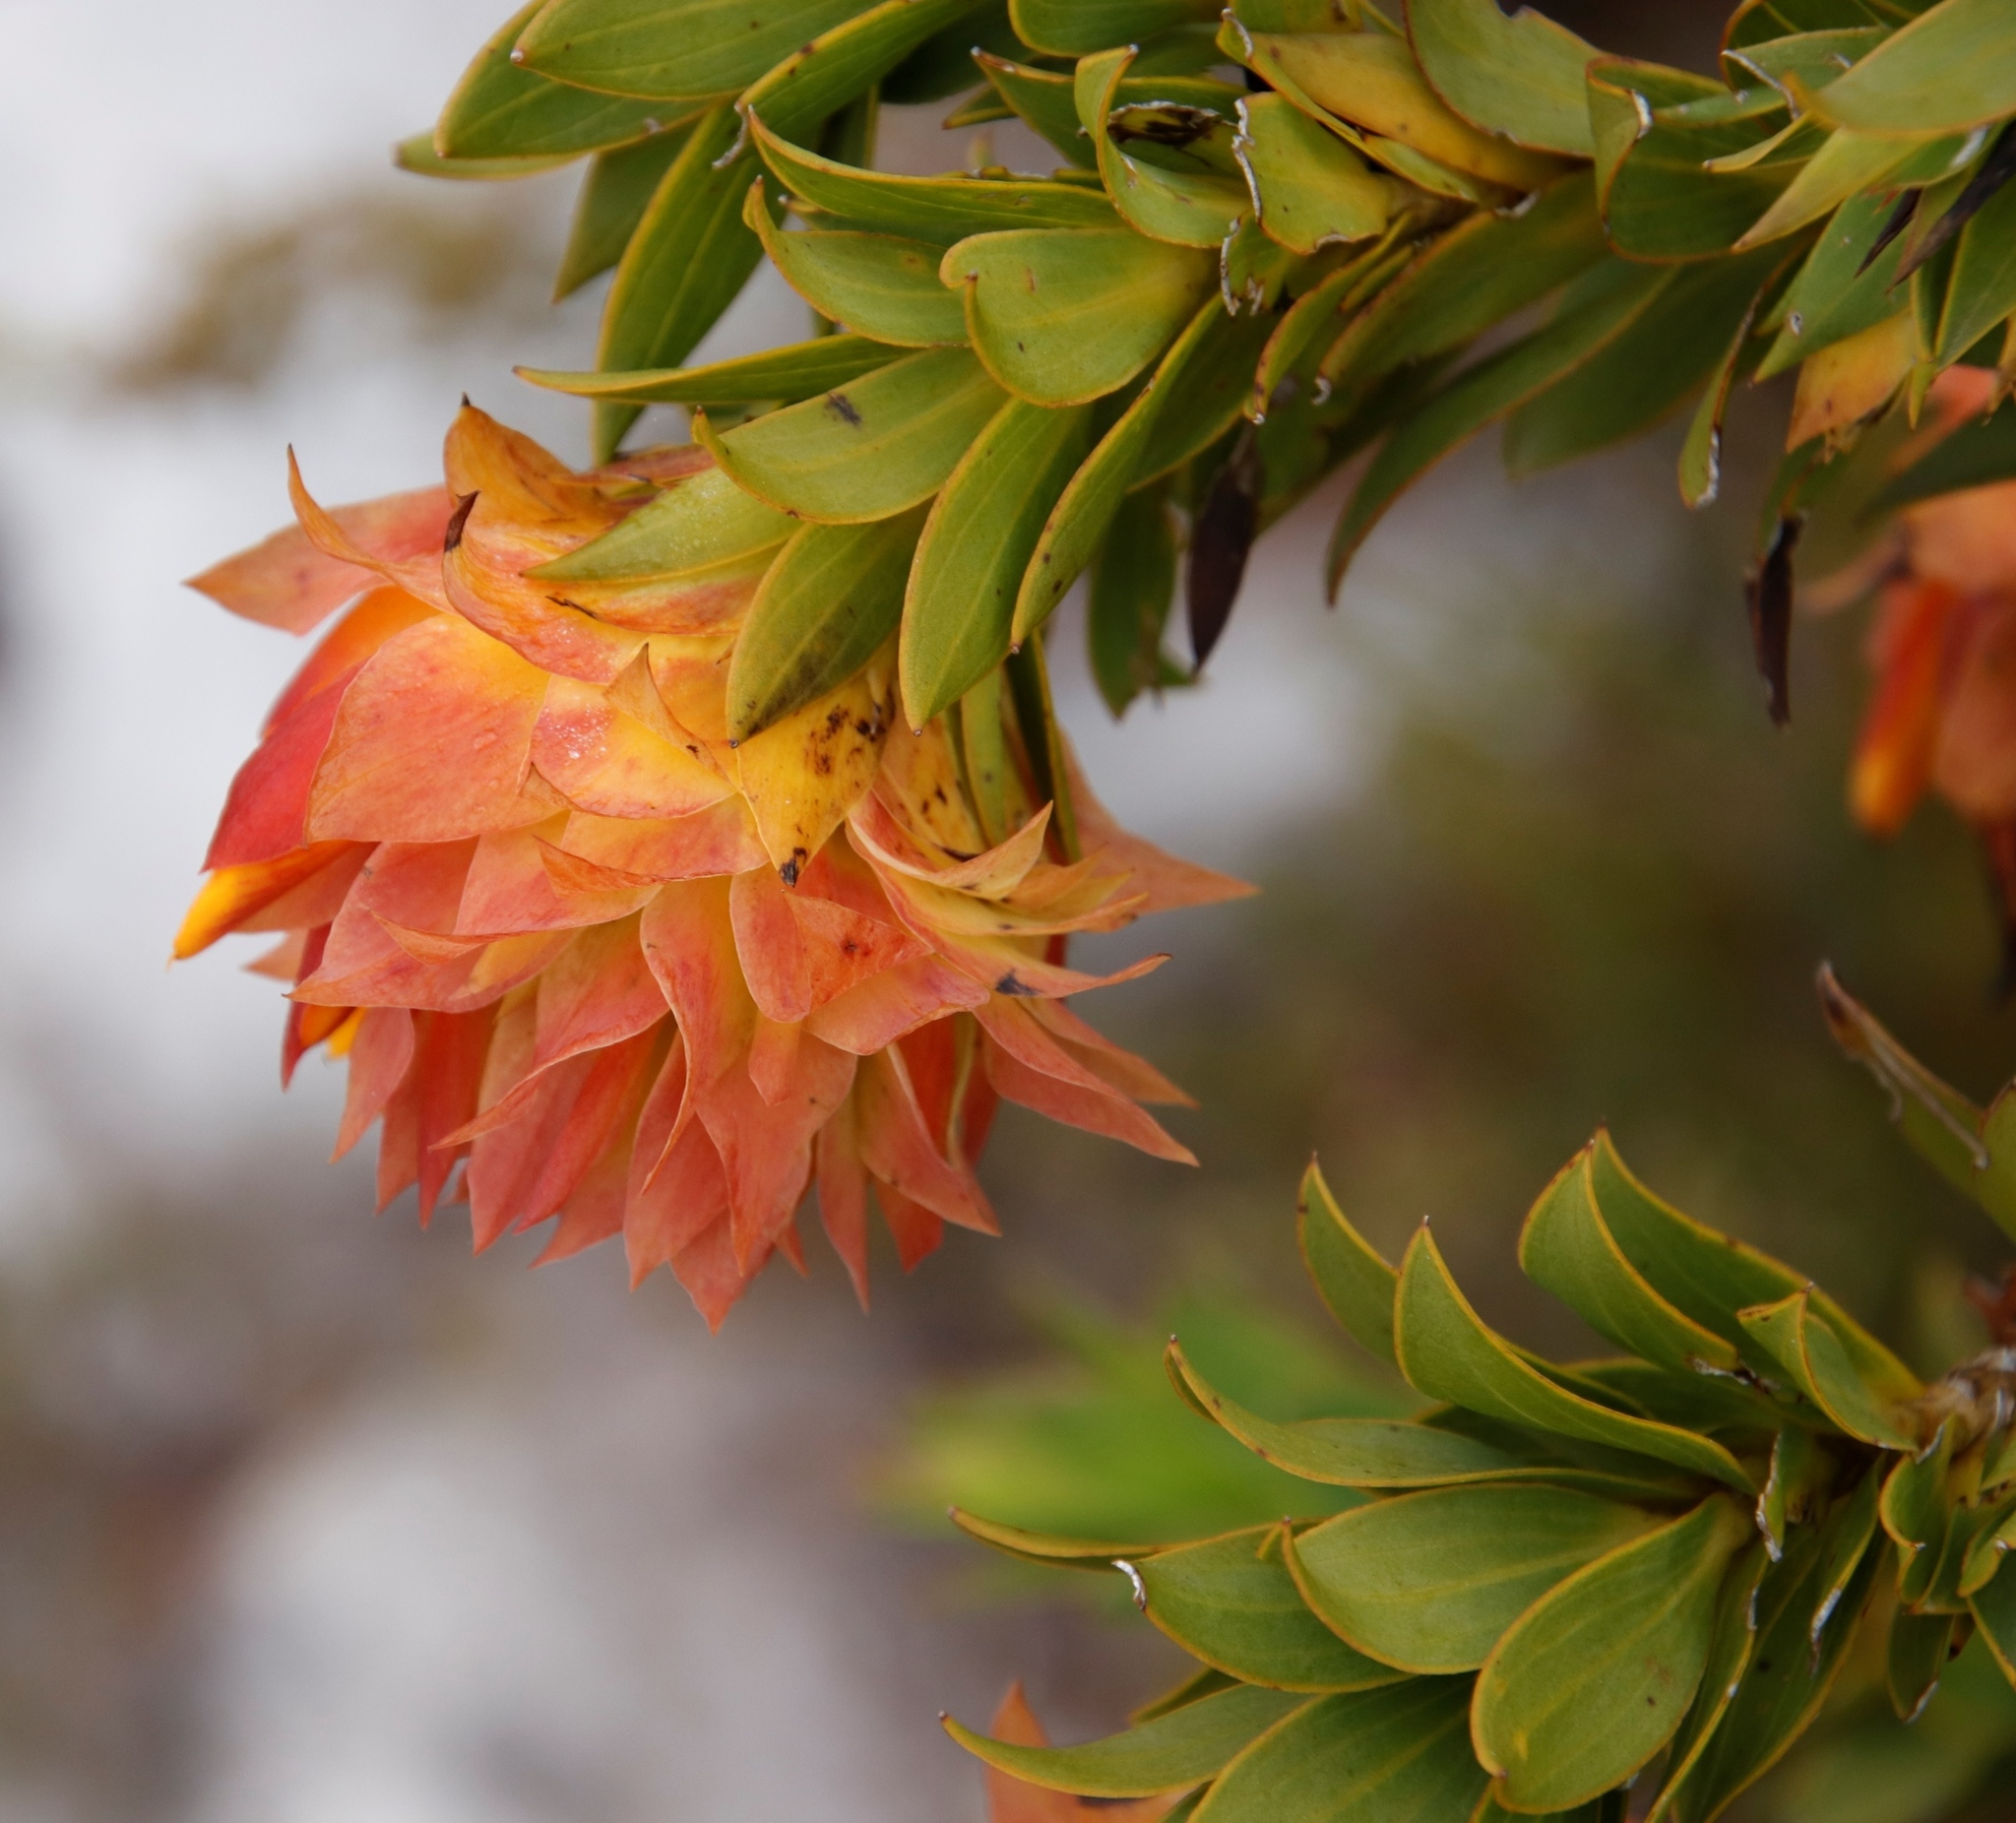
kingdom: Plantae
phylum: Tracheophyta
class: Magnoliopsida
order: Fabales
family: Fabaceae
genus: Liparia
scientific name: Liparia splendens
